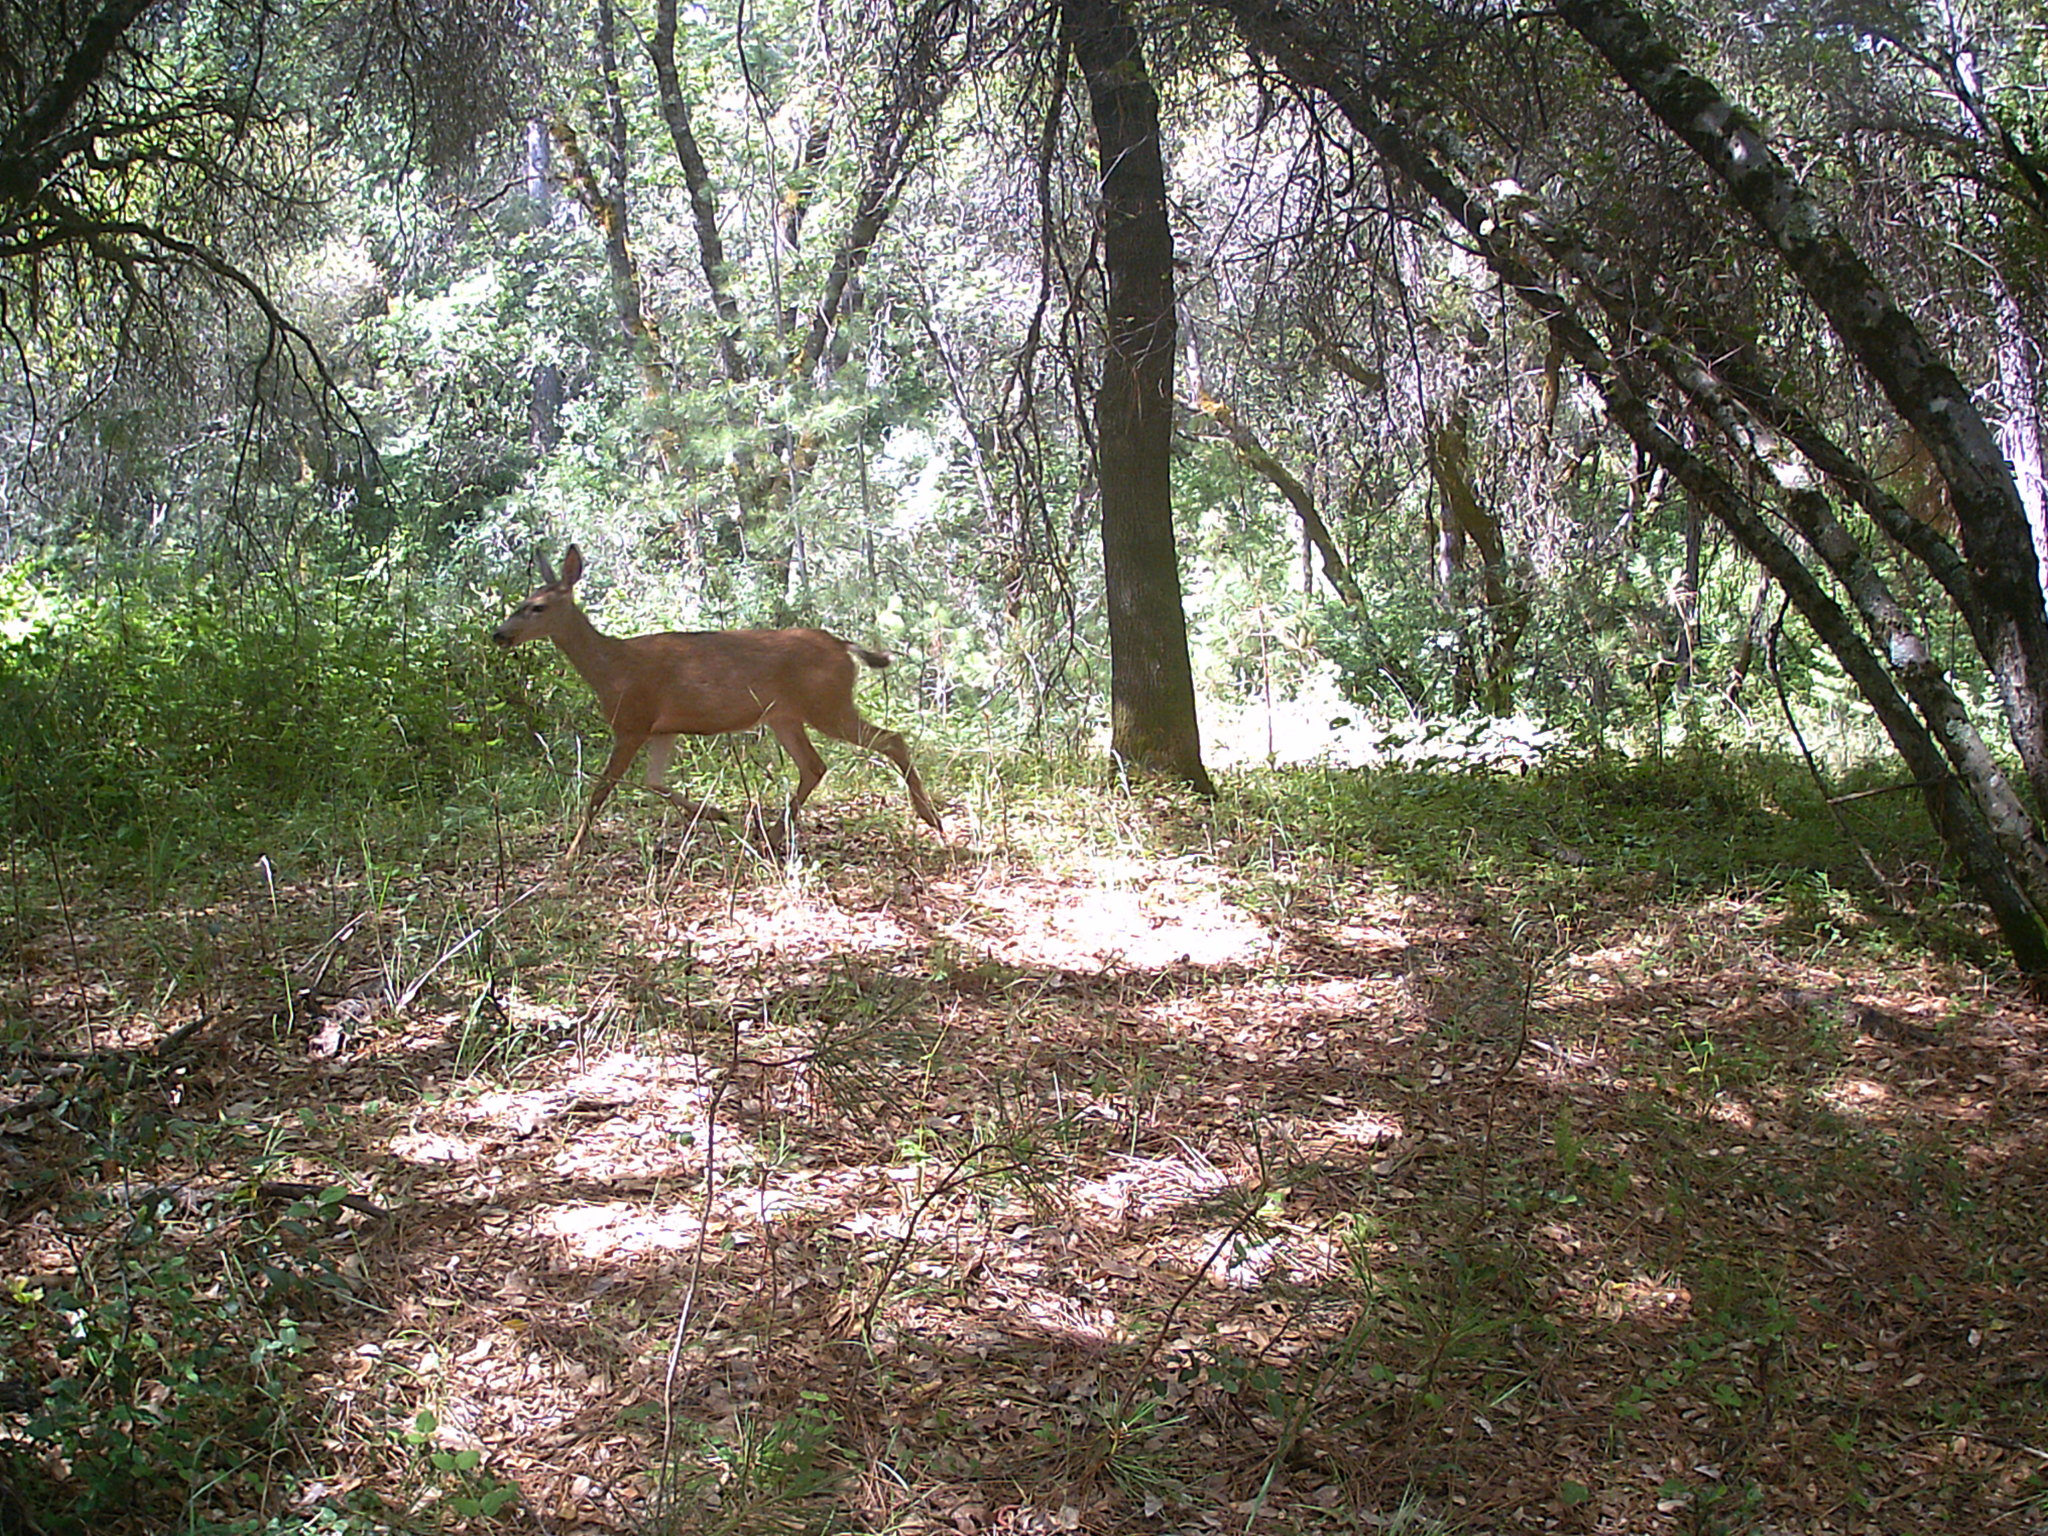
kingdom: Animalia
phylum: Chordata
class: Mammalia
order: Artiodactyla
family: Cervidae
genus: Odocoileus
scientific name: Odocoileus hemionus
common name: Mule deer
